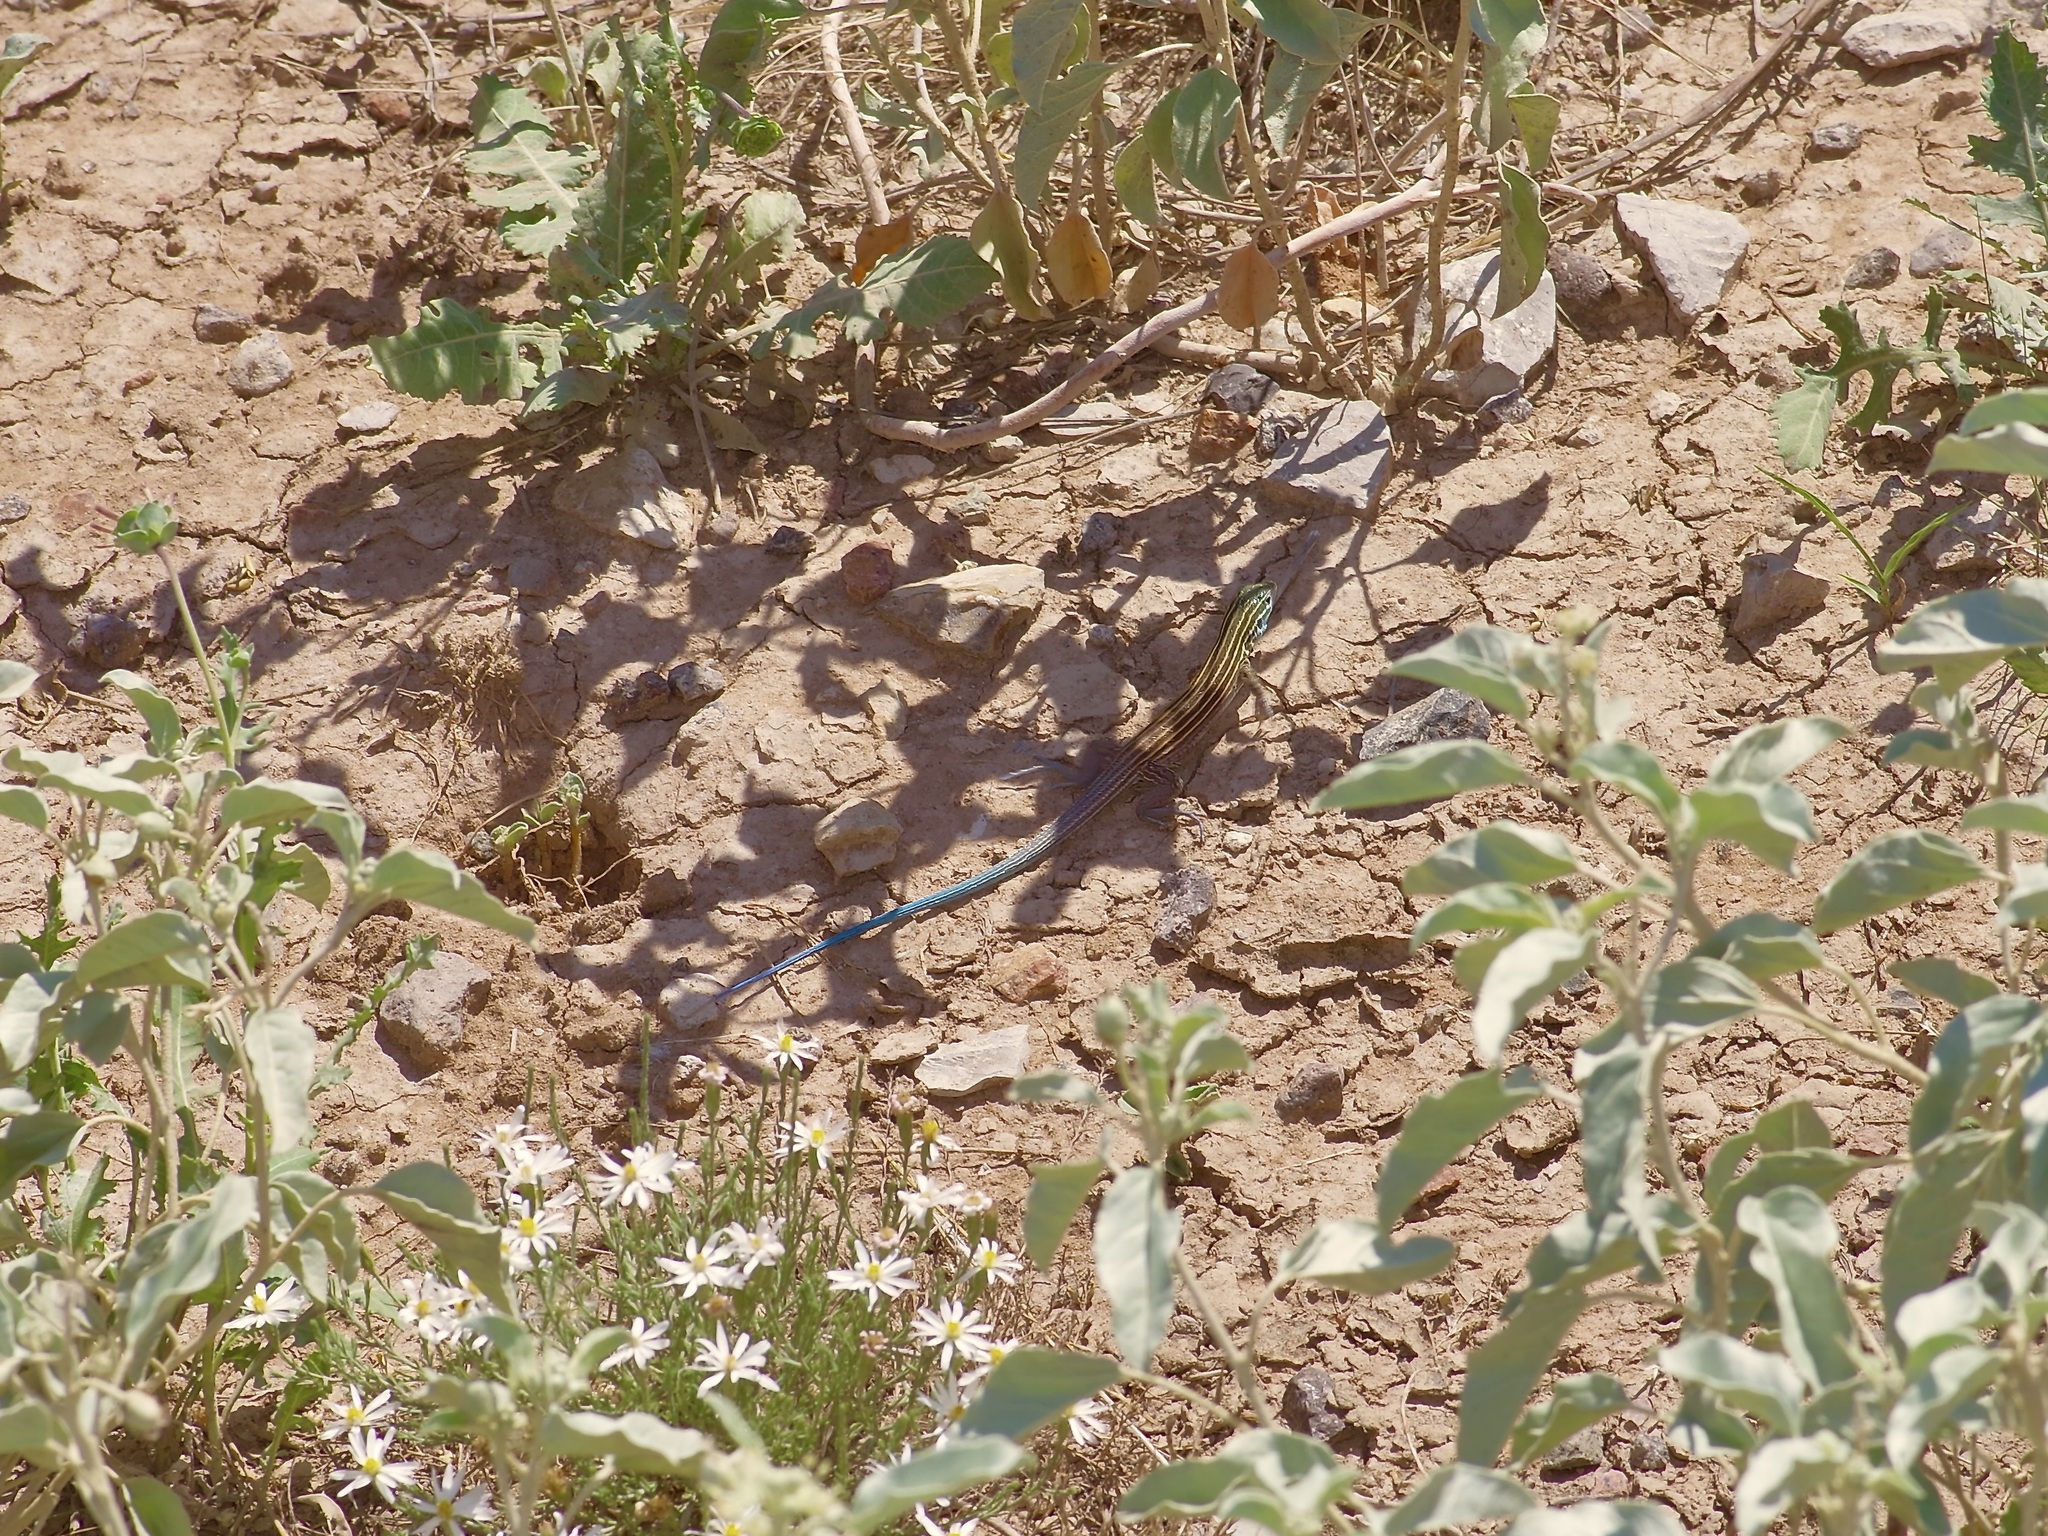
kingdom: Animalia
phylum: Chordata
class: Squamata
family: Teiidae
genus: Aspidoscelis
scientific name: Aspidoscelis inornatus
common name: Little striped whiptail
